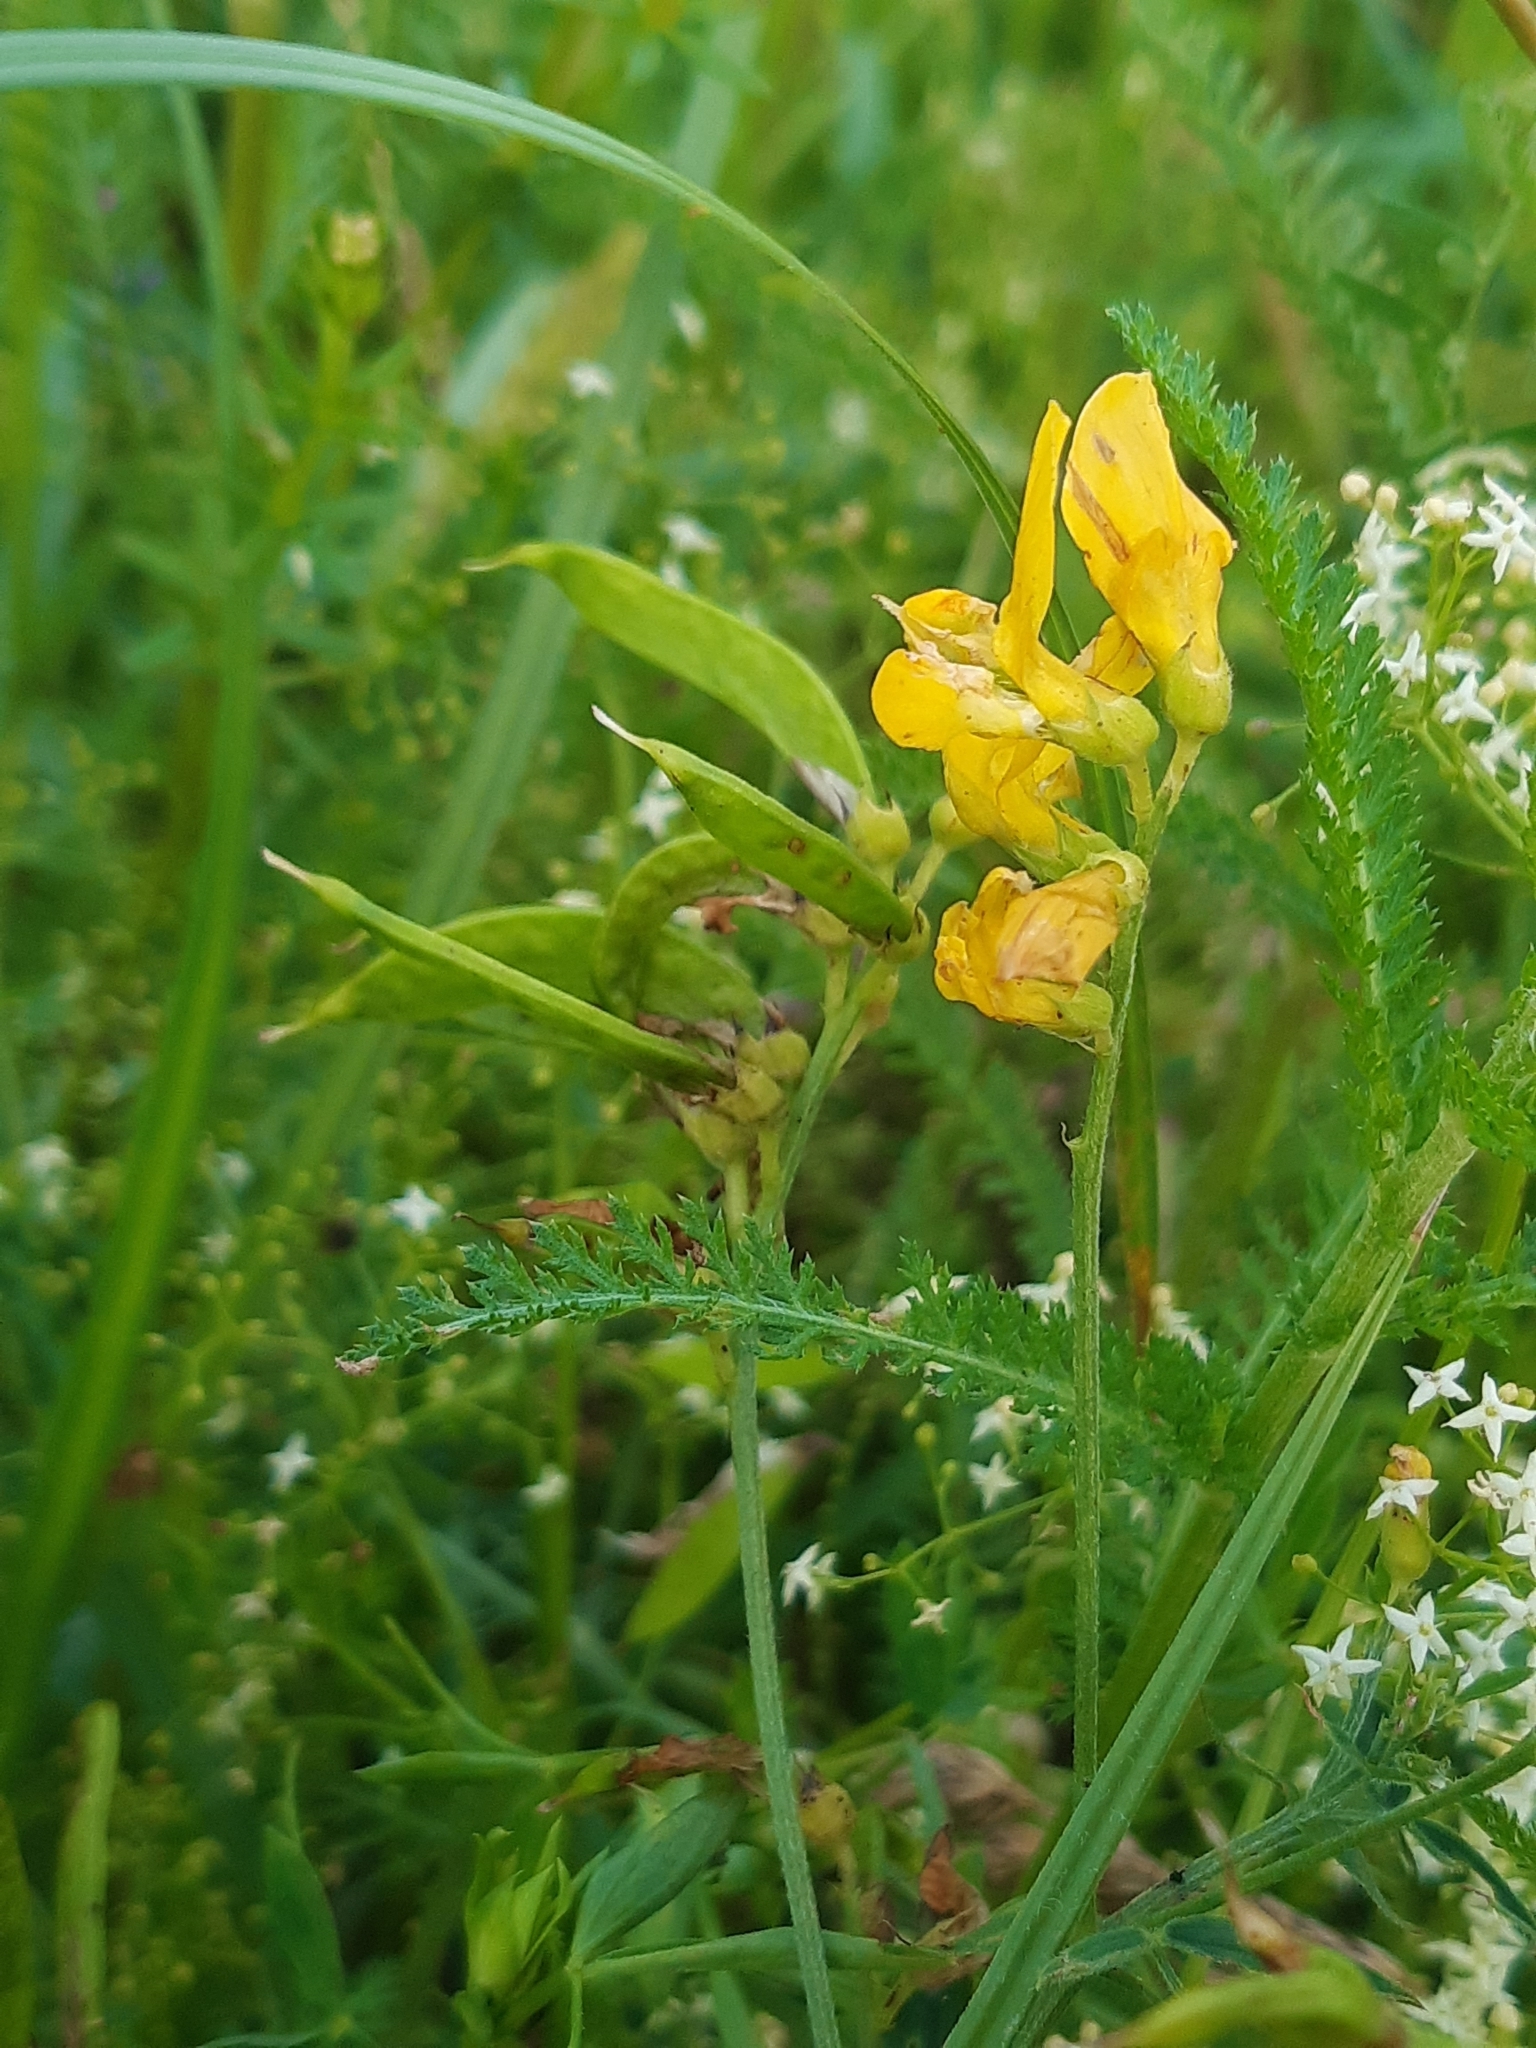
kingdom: Plantae
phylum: Tracheophyta
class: Magnoliopsida
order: Fabales
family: Fabaceae
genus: Lathyrus
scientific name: Lathyrus pratensis
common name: Meadow vetchling
